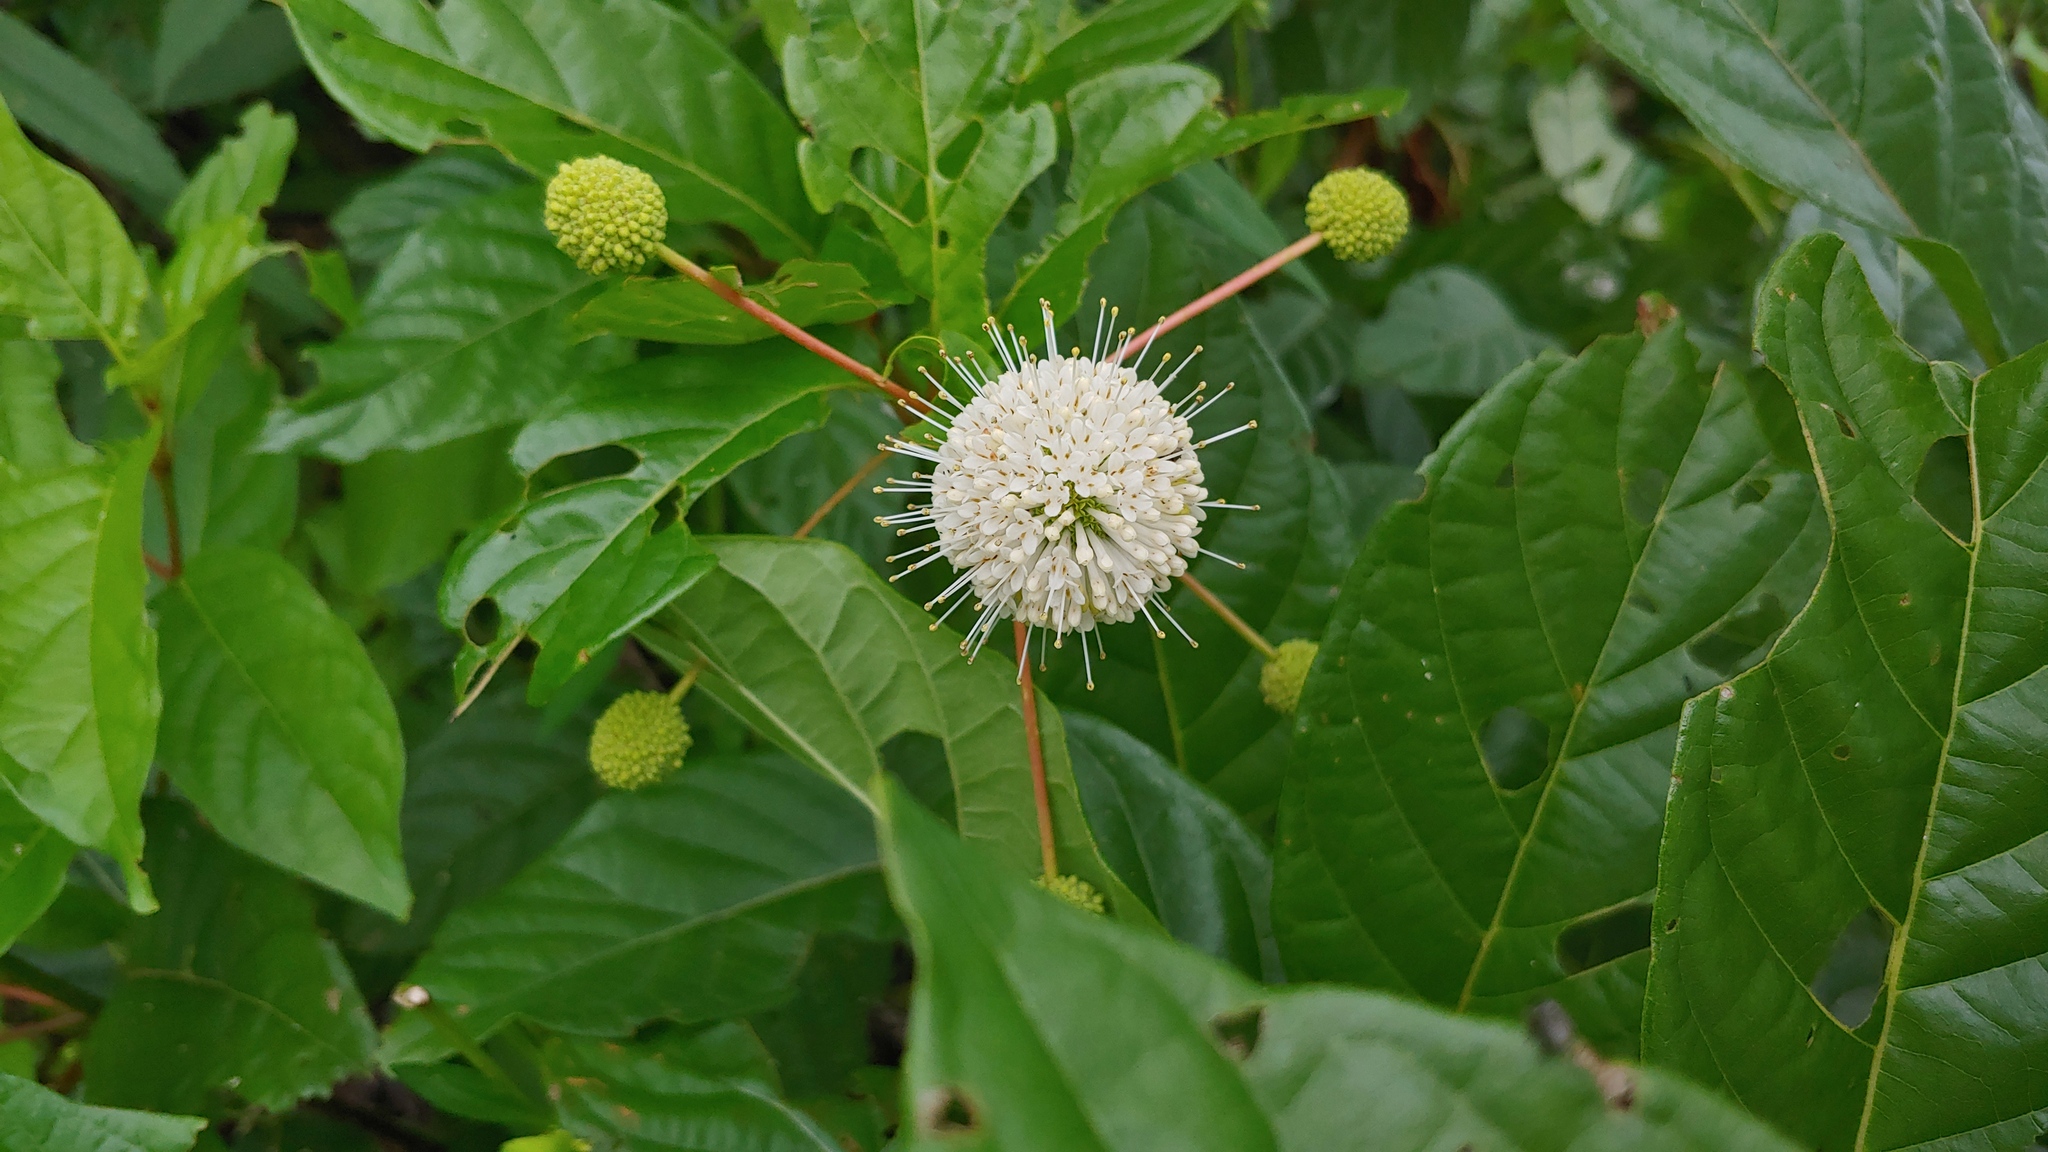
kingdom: Plantae
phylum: Tracheophyta
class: Magnoliopsida
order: Gentianales
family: Rubiaceae
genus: Cephalanthus
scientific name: Cephalanthus occidentalis
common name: Button-willow
